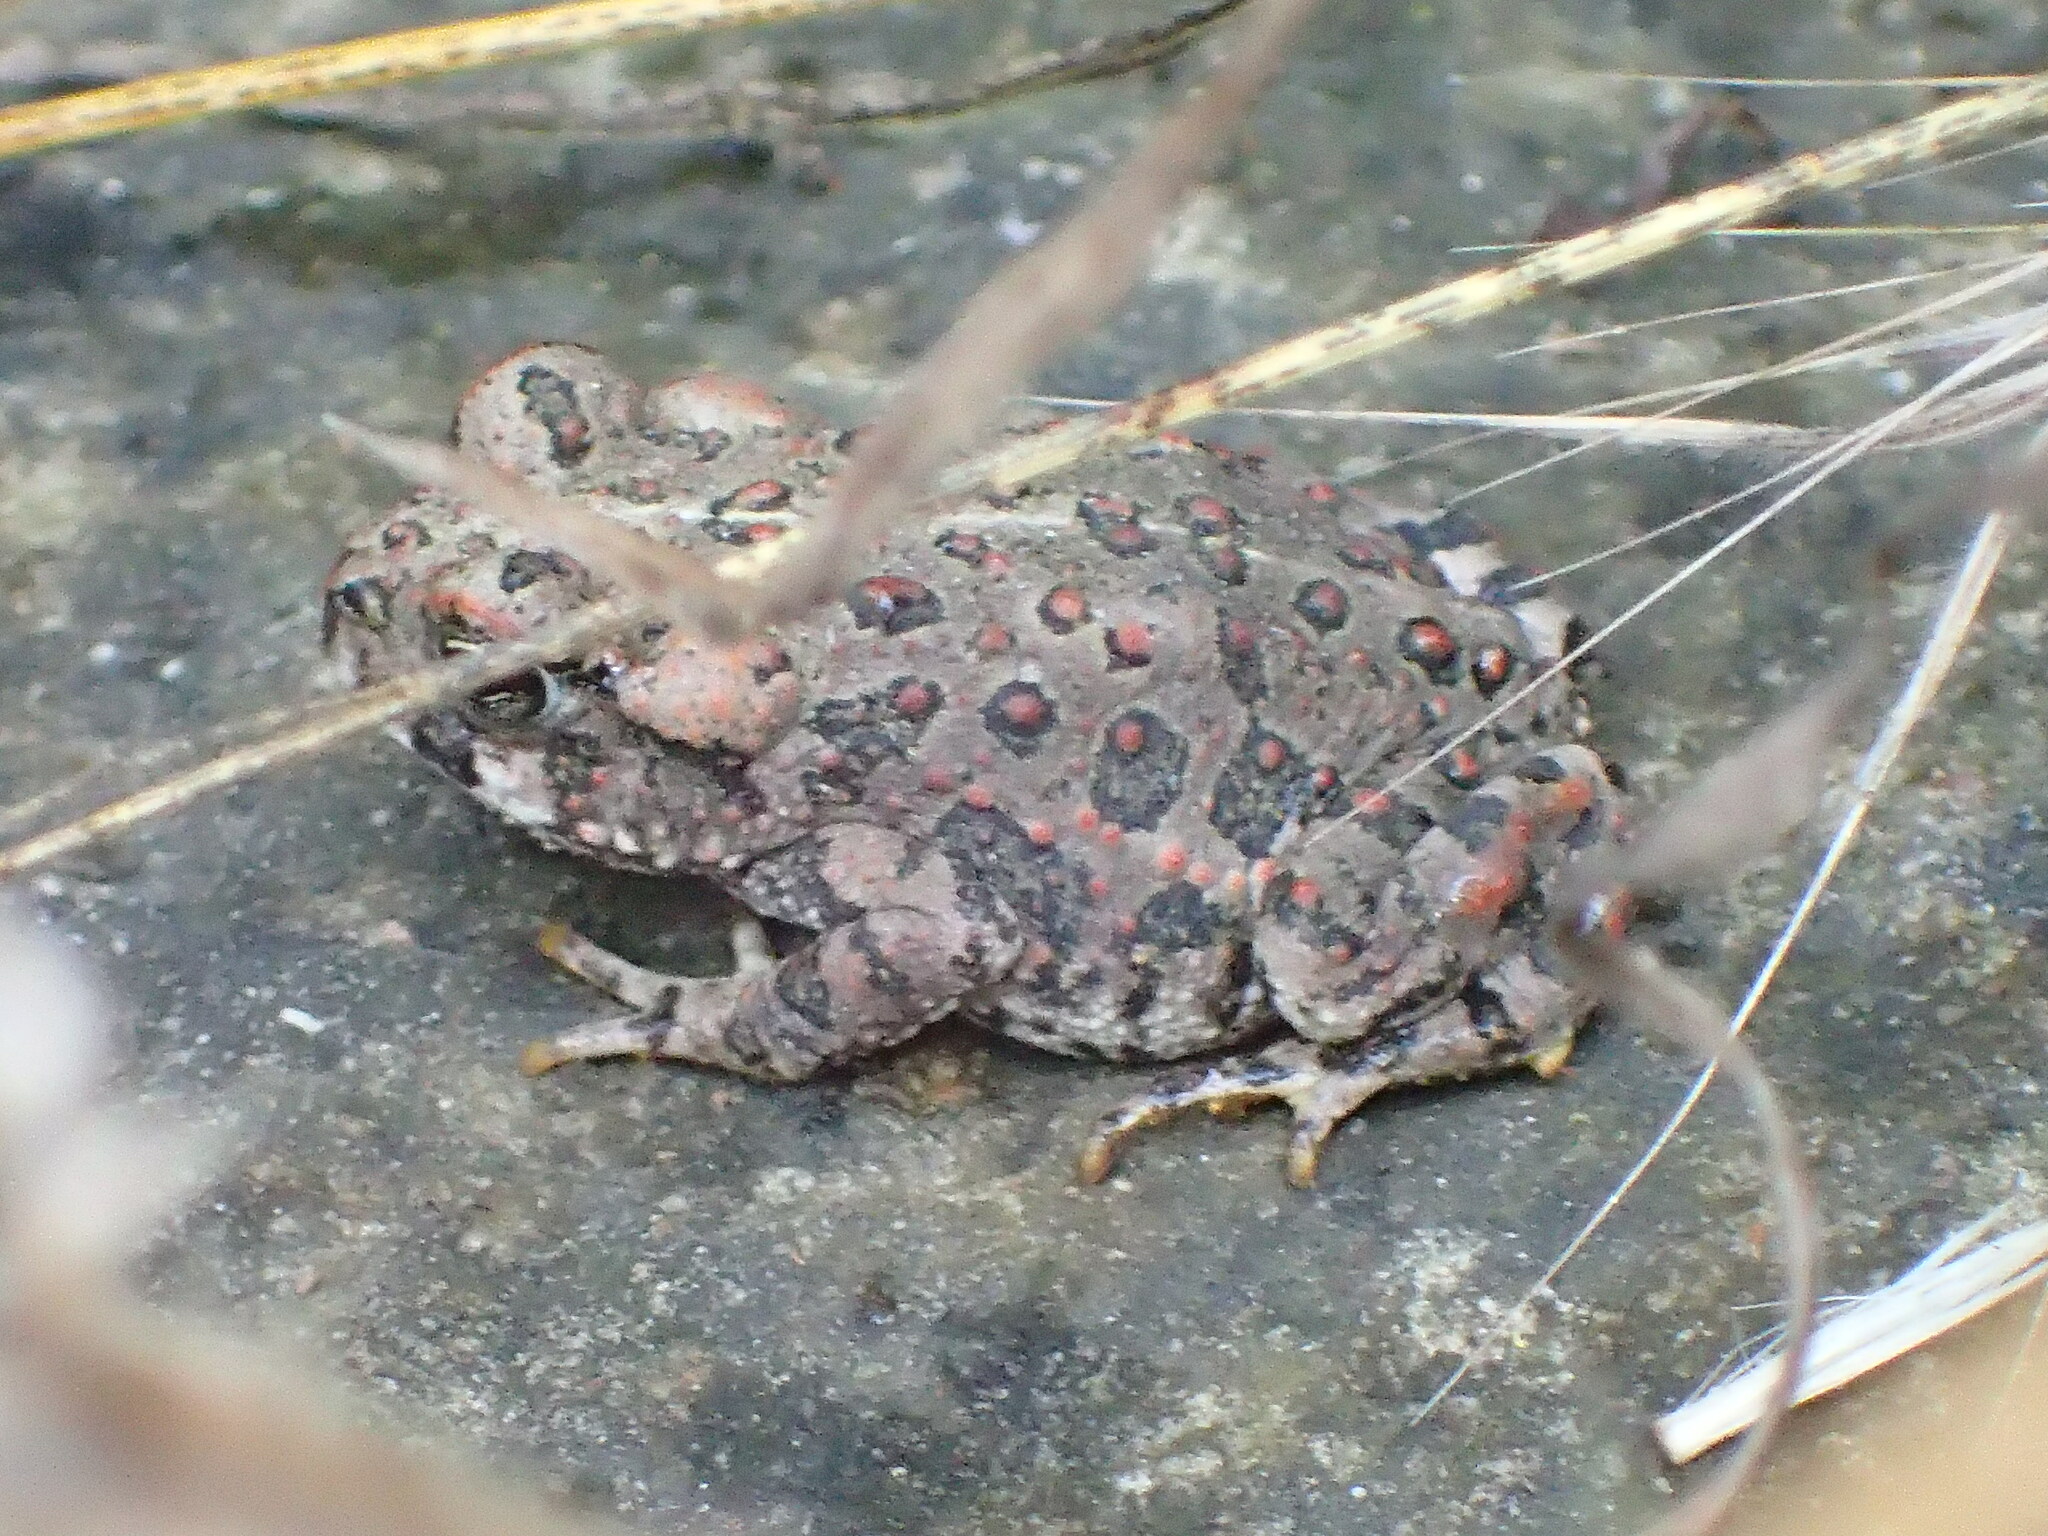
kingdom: Animalia
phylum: Chordata
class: Amphibia
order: Anura
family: Bufonidae
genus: Anaxyrus
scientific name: Anaxyrus boreas
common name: Western toad
